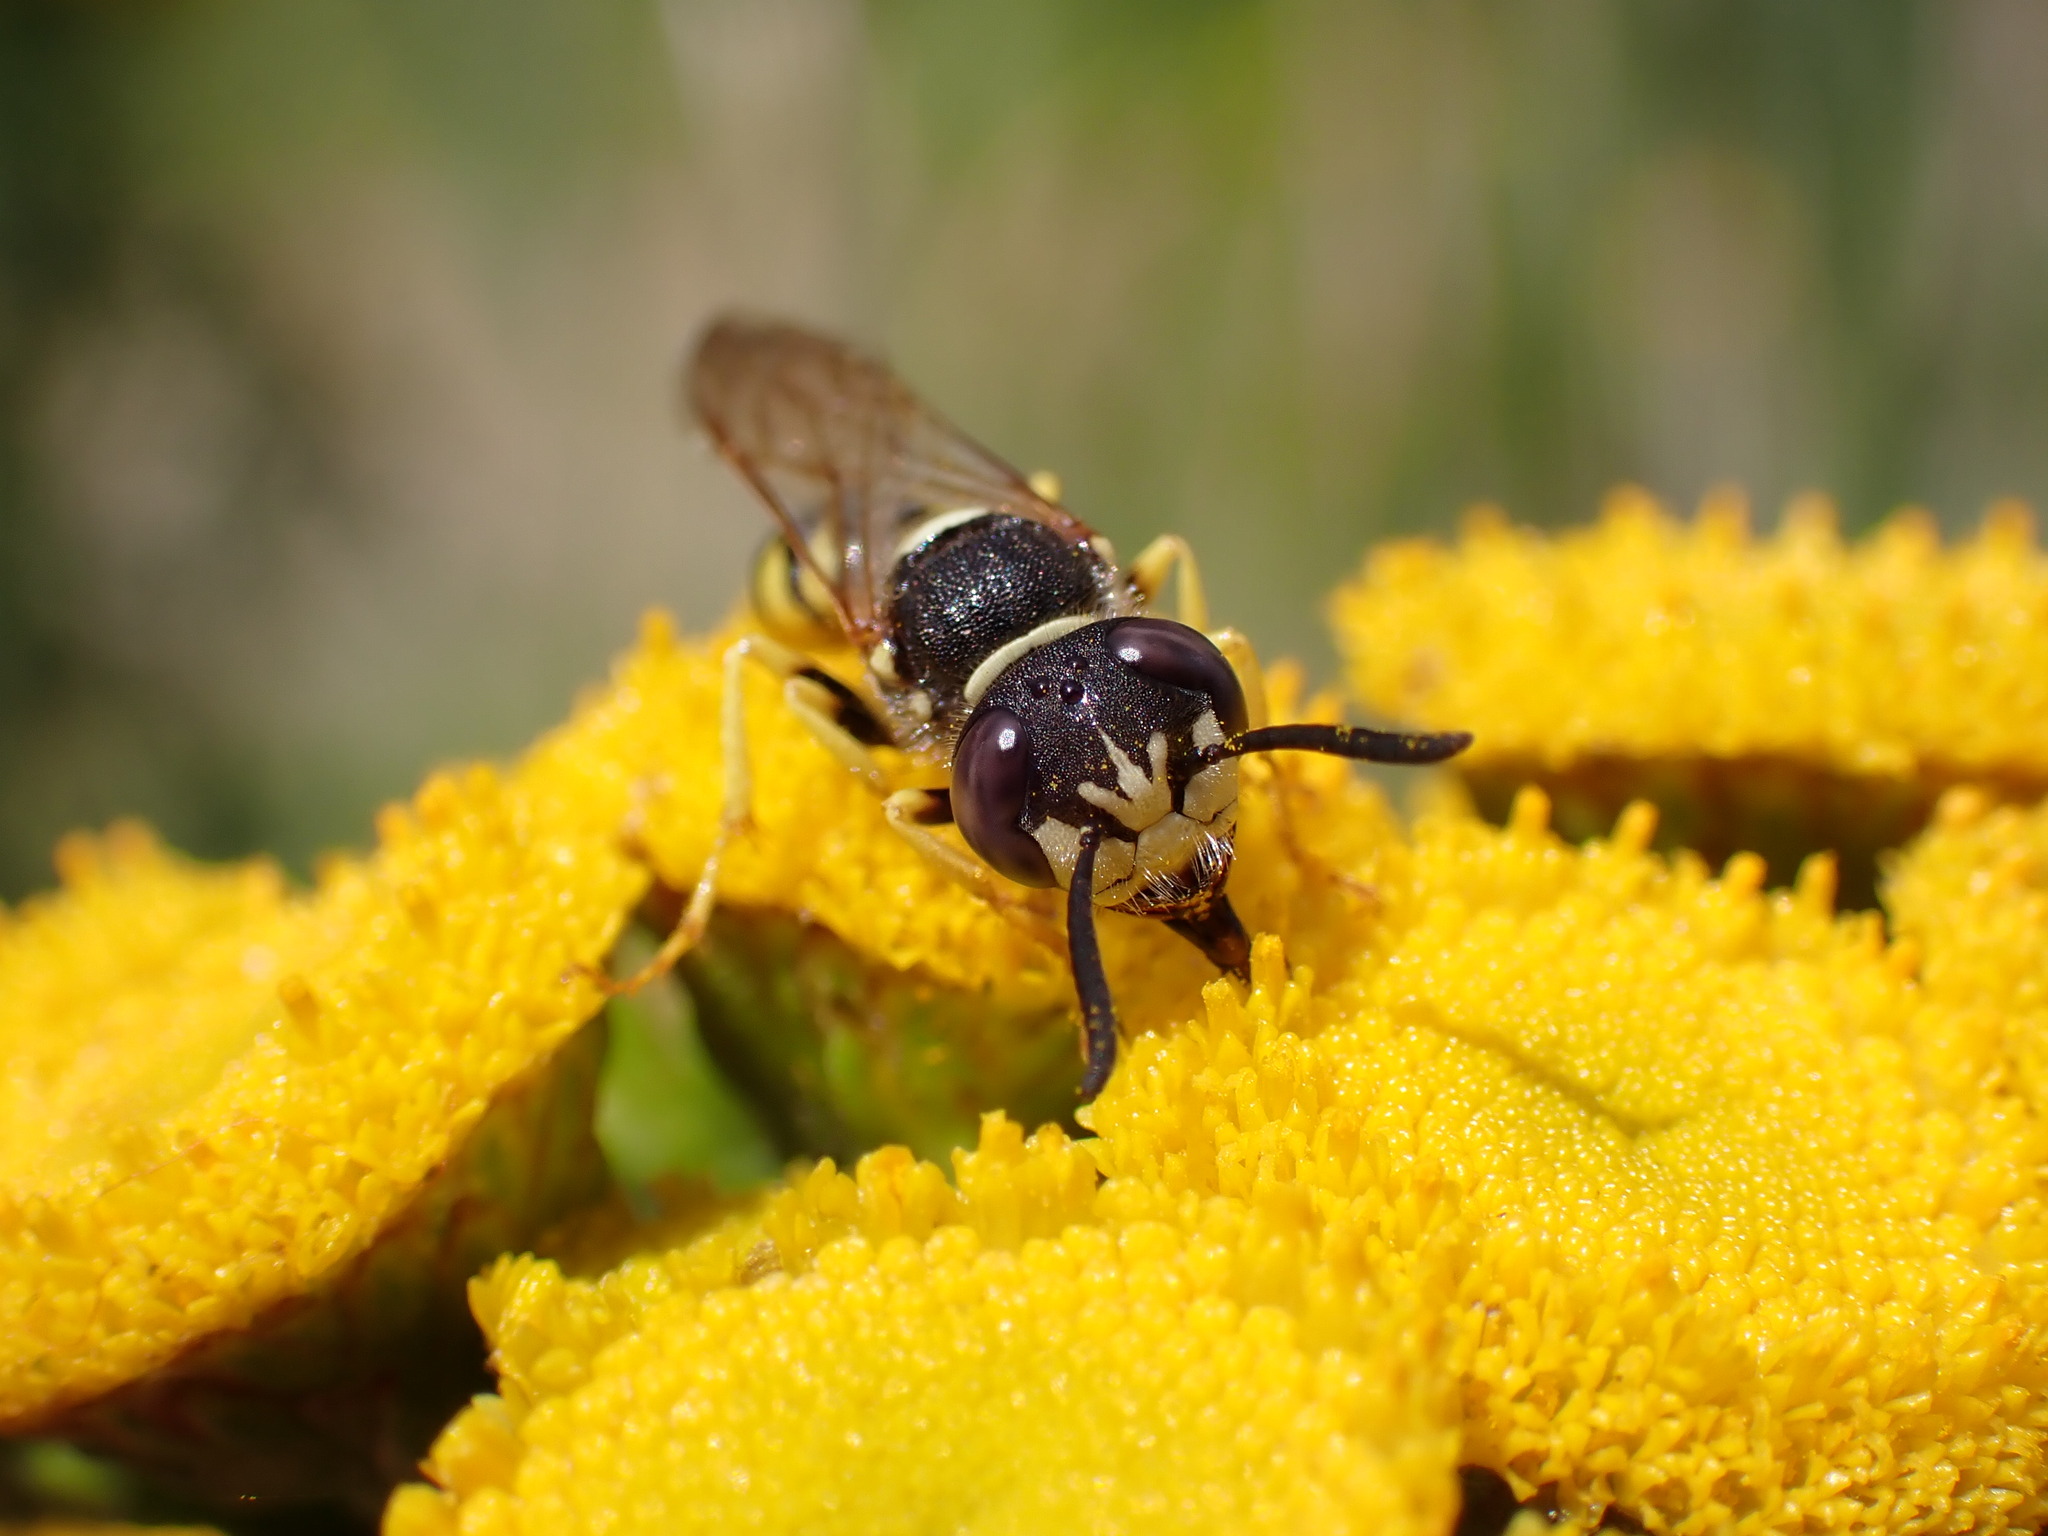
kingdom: Animalia
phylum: Arthropoda
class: Insecta
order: Hymenoptera
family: Crabronidae
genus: Philanthus
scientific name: Philanthus triangulum
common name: Bee wolf
